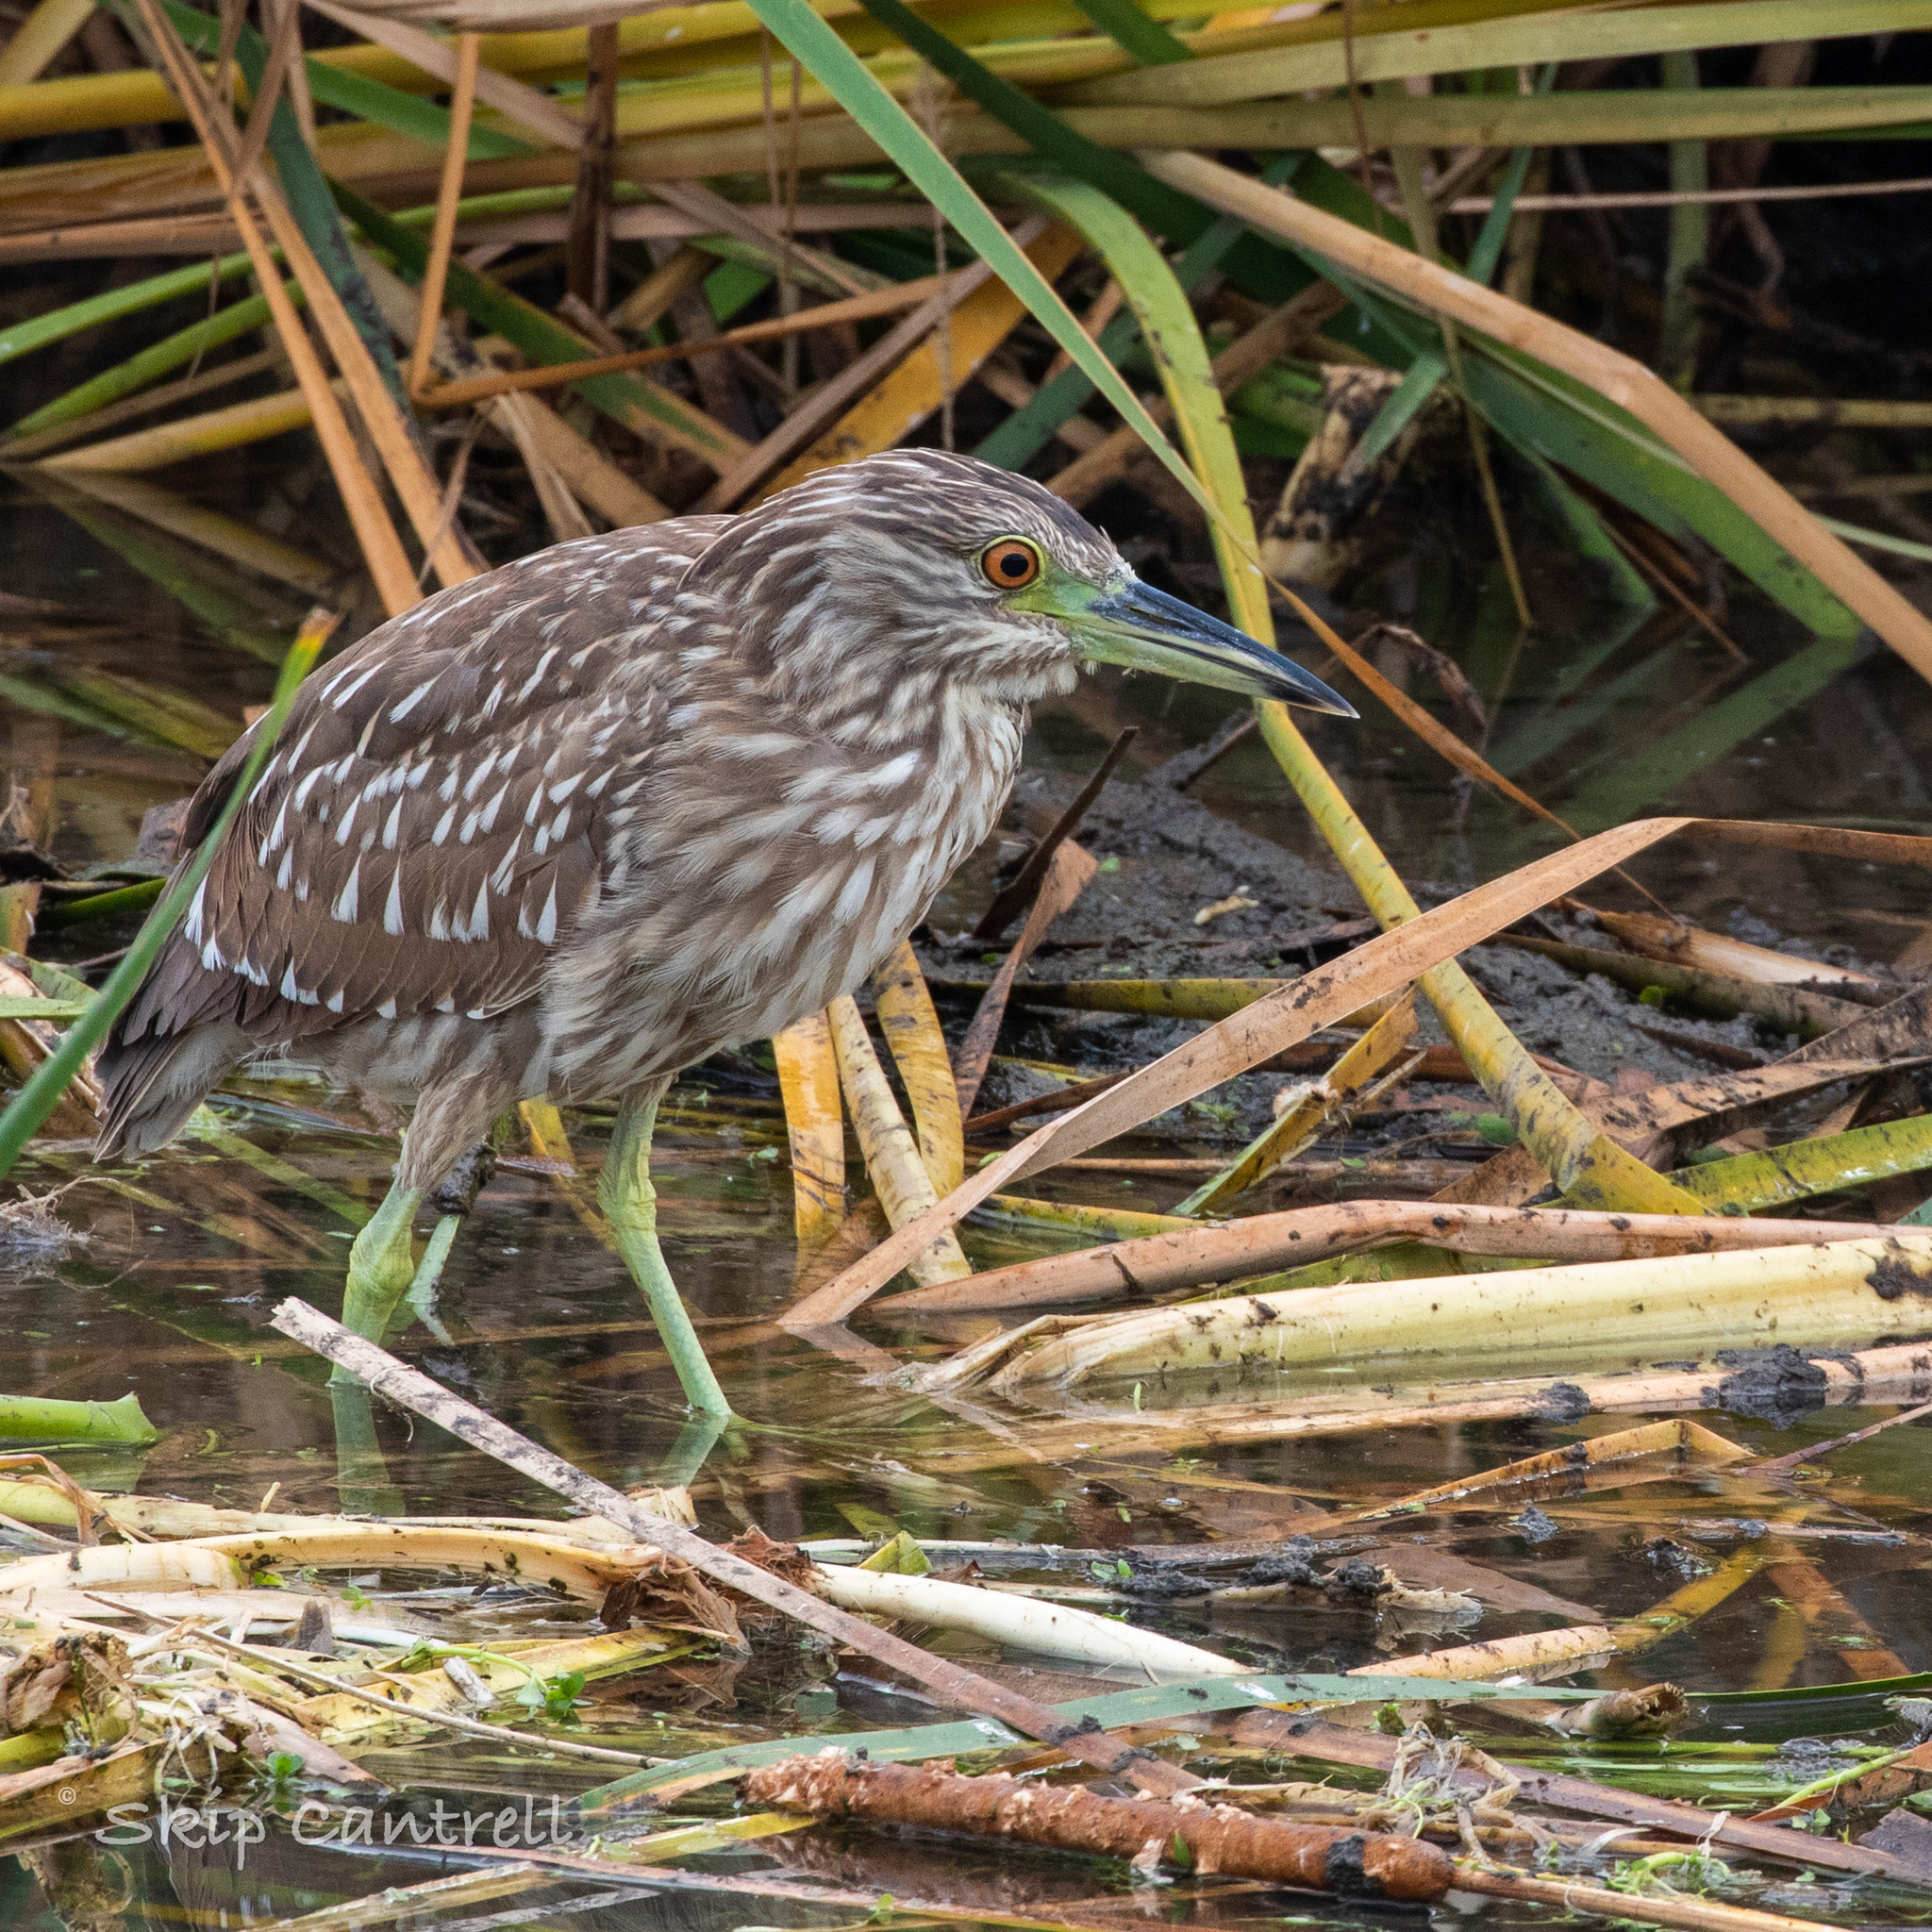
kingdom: Animalia
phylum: Chordata
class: Aves
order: Pelecaniformes
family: Ardeidae
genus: Nycticorax
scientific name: Nycticorax nycticorax
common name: Black-crowned night heron
